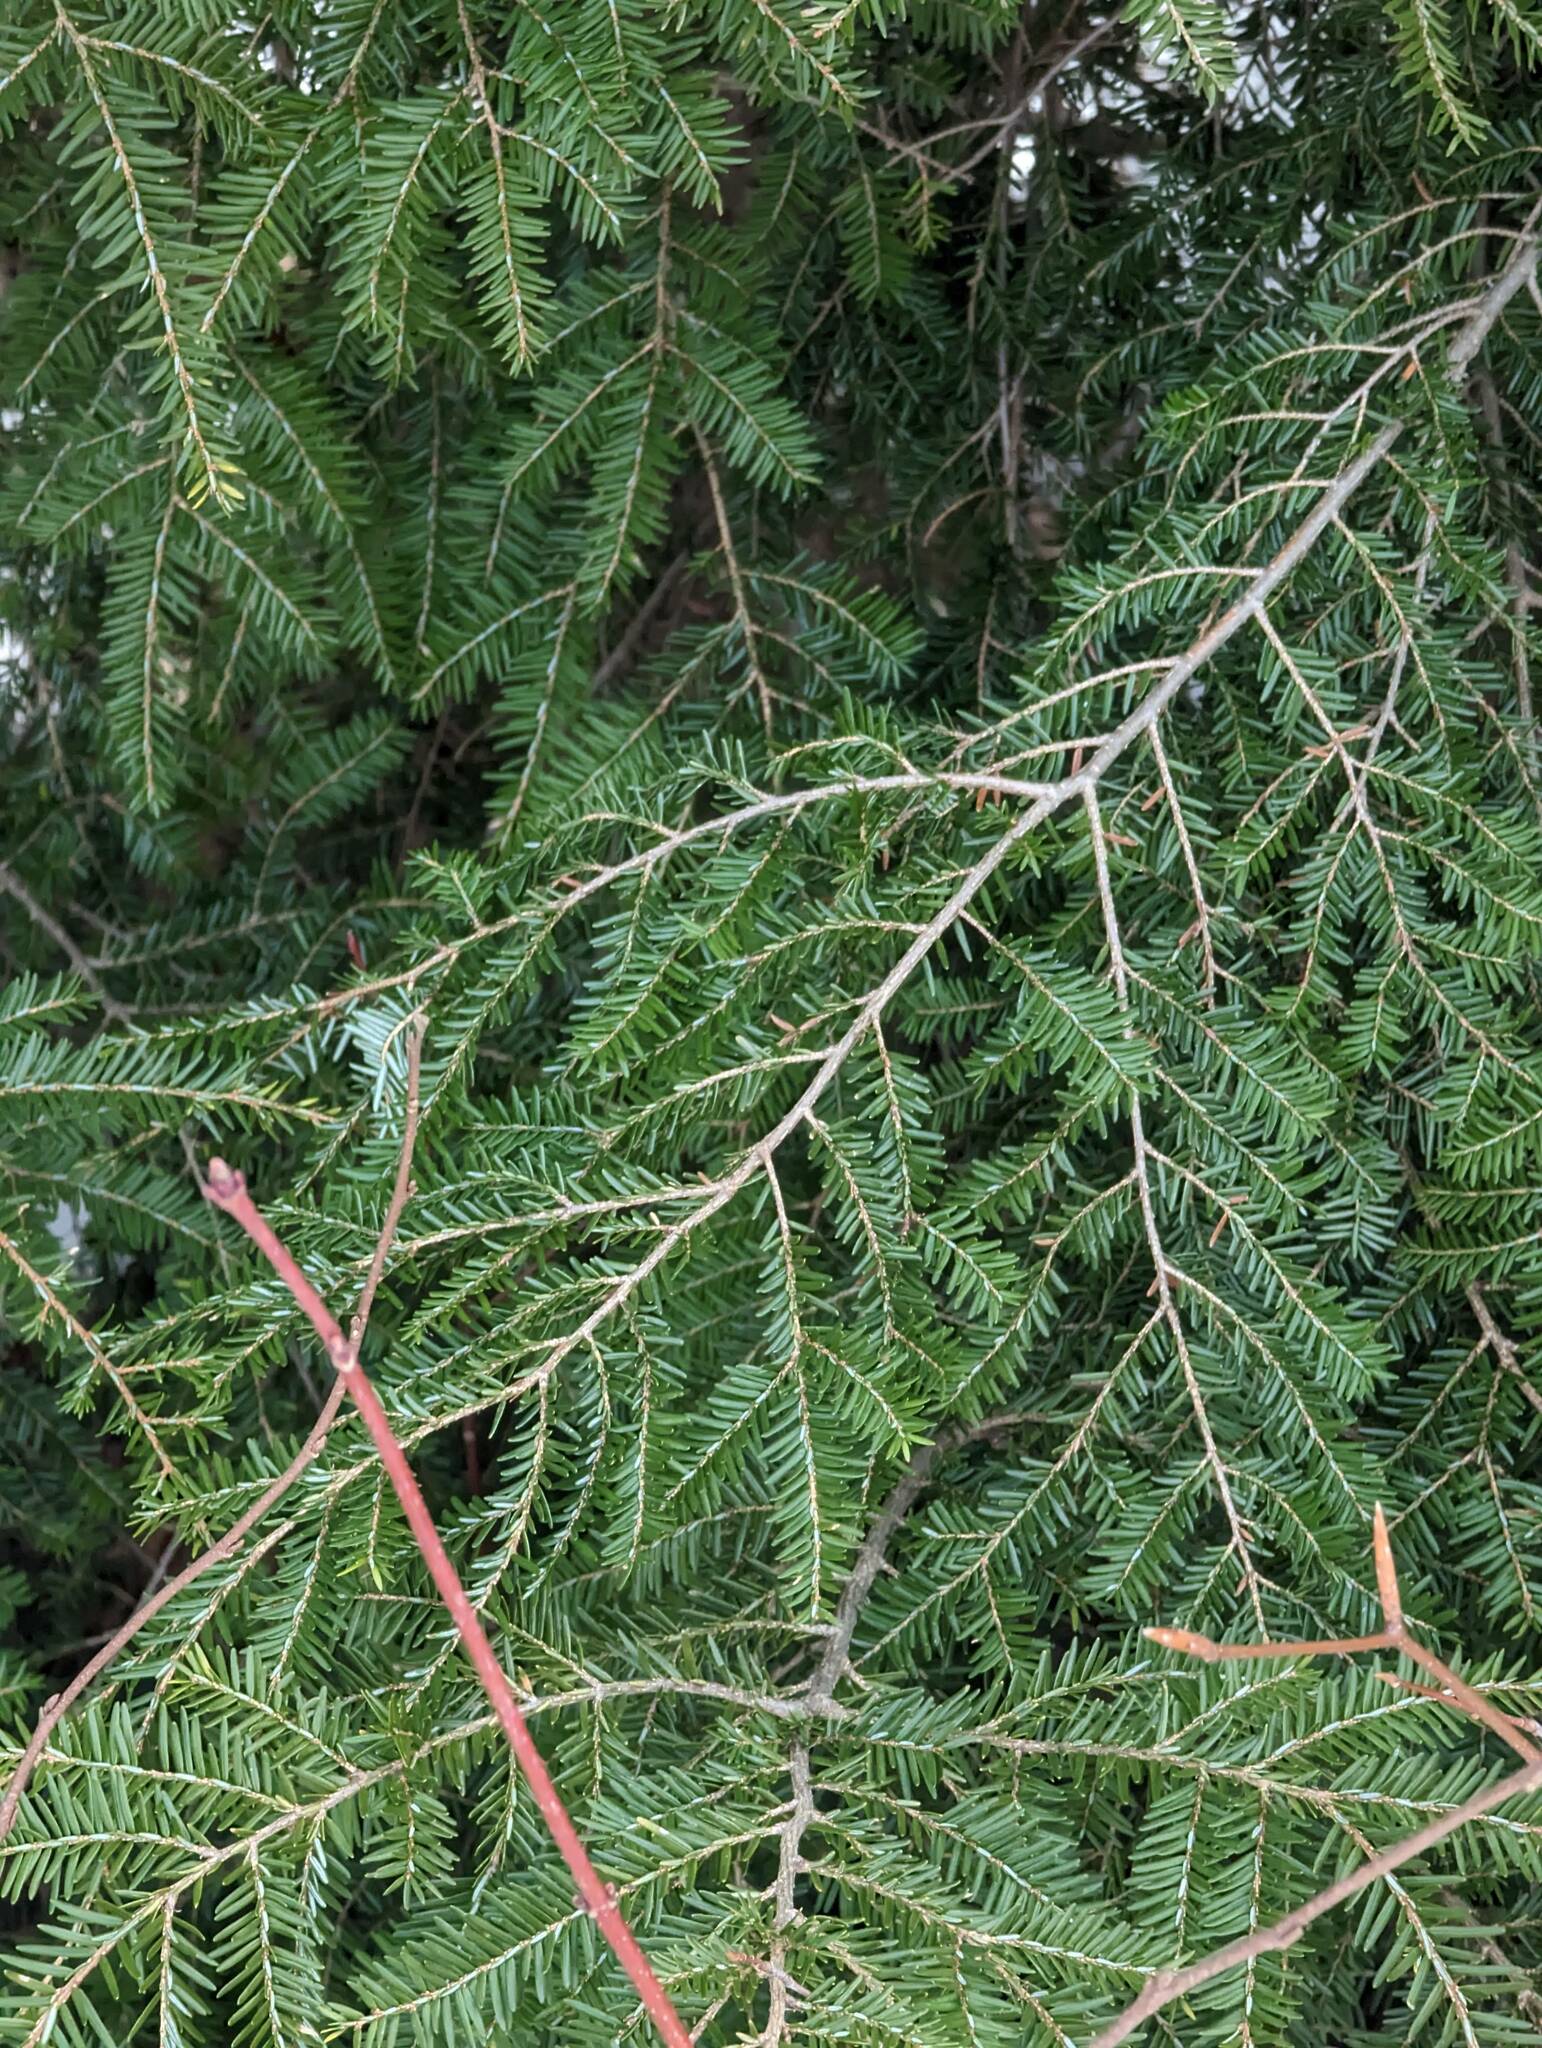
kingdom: Plantae
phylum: Tracheophyta
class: Pinopsida
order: Pinales
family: Pinaceae
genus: Tsuga
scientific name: Tsuga canadensis
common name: Eastern hemlock
